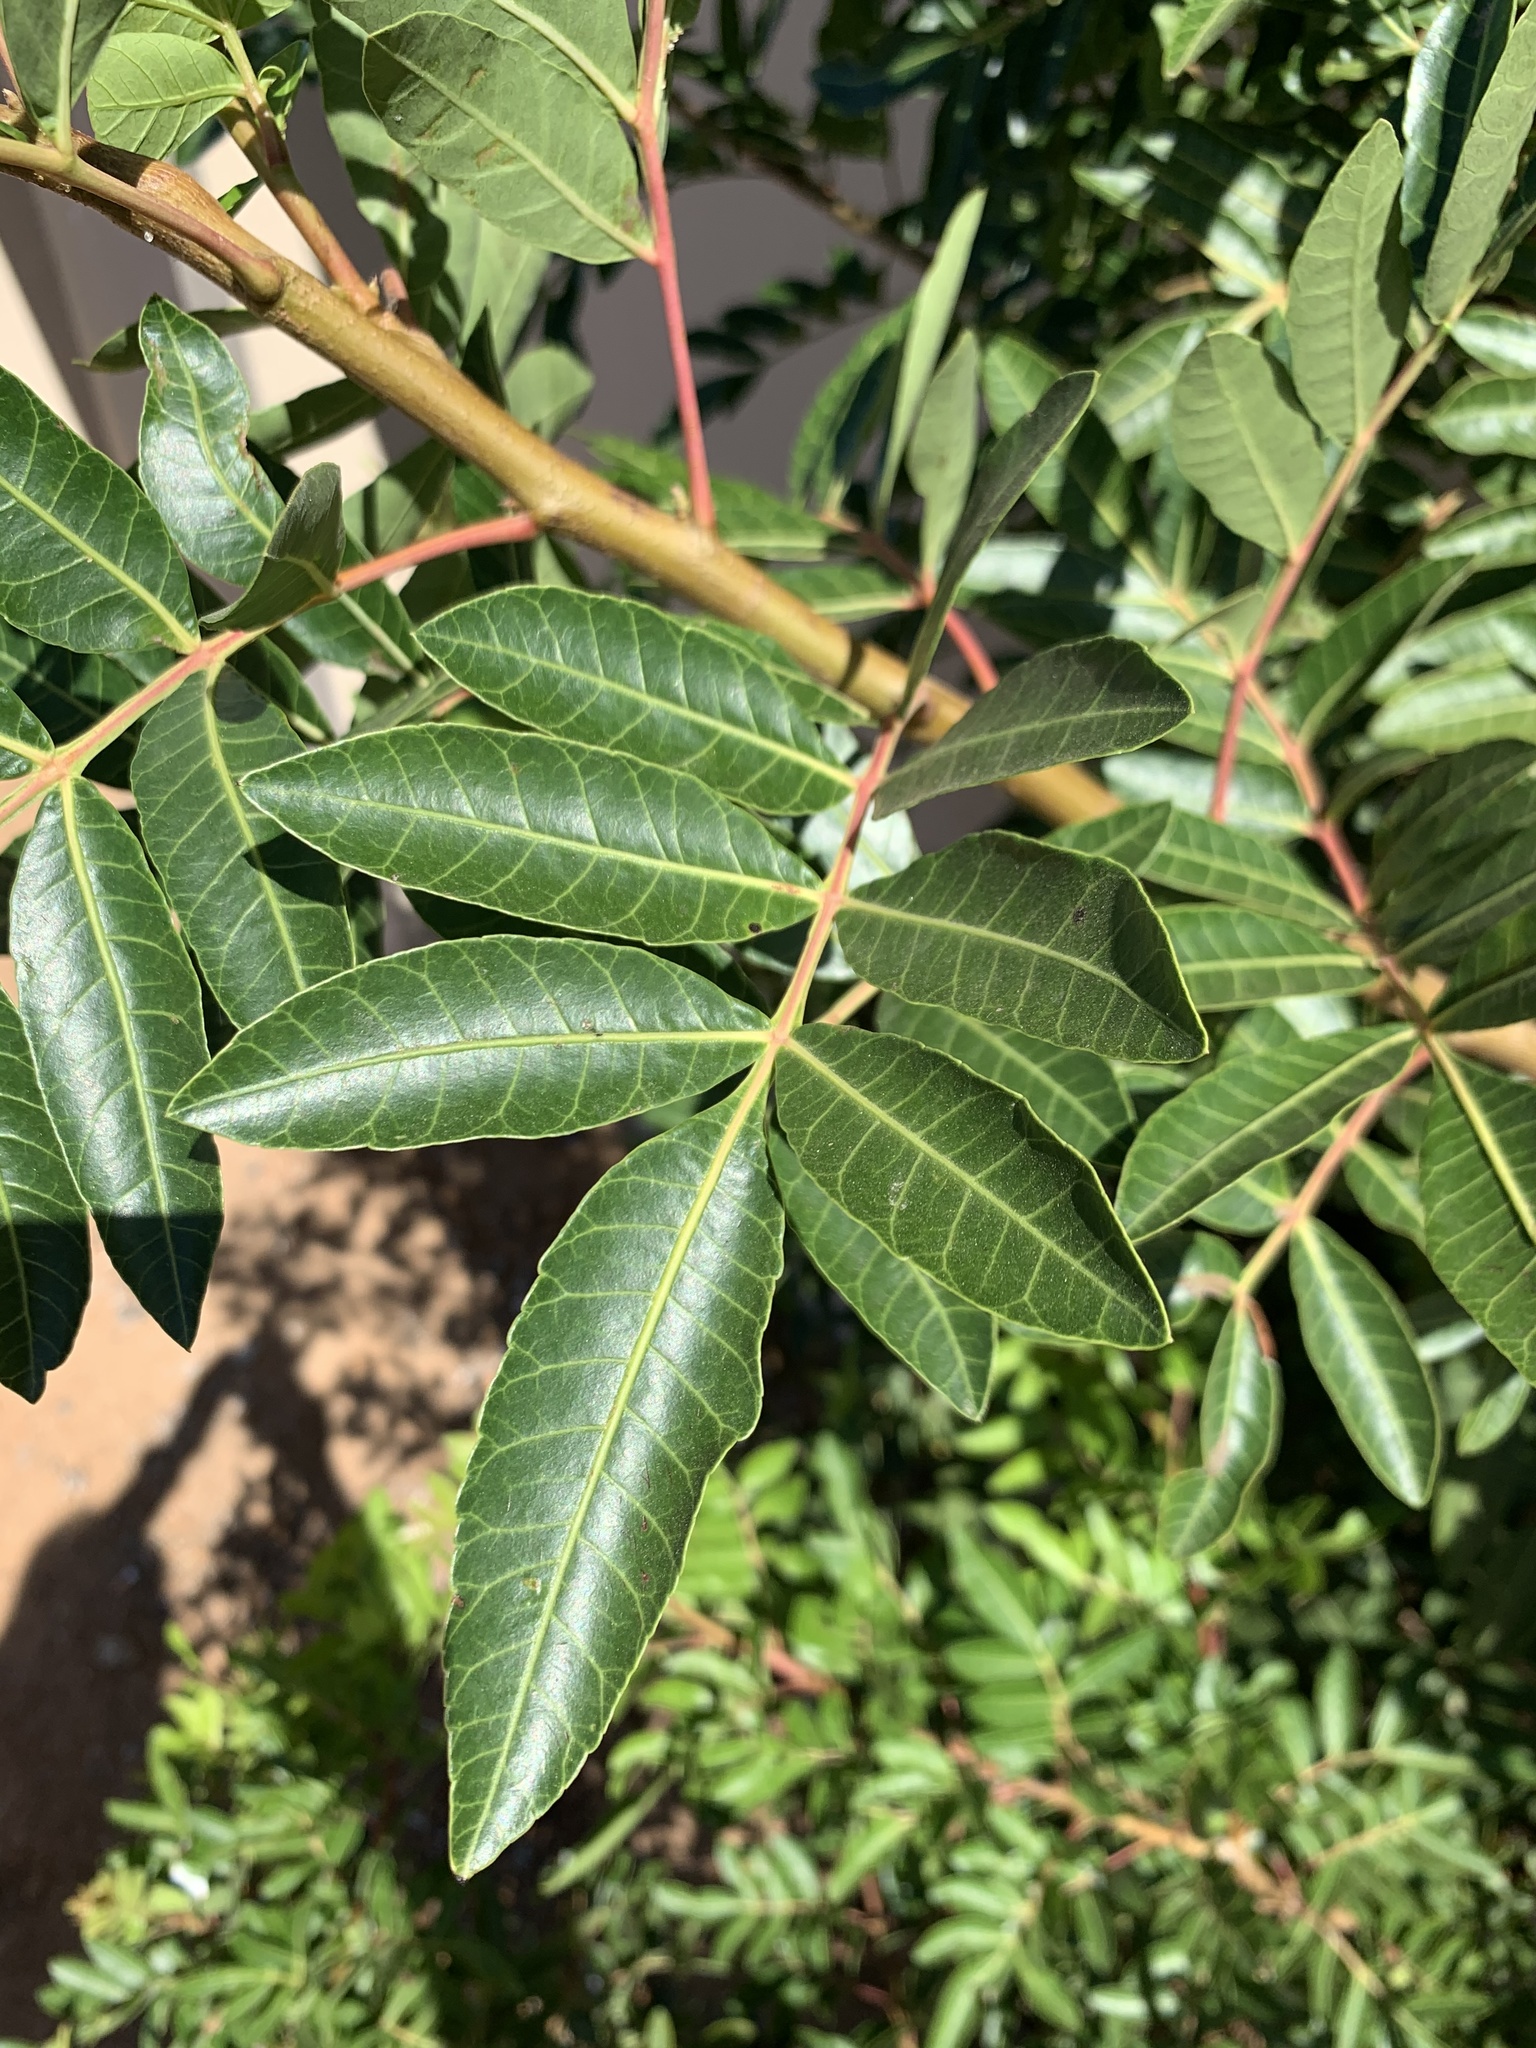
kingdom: Plantae
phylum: Tracheophyta
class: Magnoliopsida
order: Sapindales
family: Anacardiaceae
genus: Schinus
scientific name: Schinus terebinthifolia
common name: Brazilian peppertree
